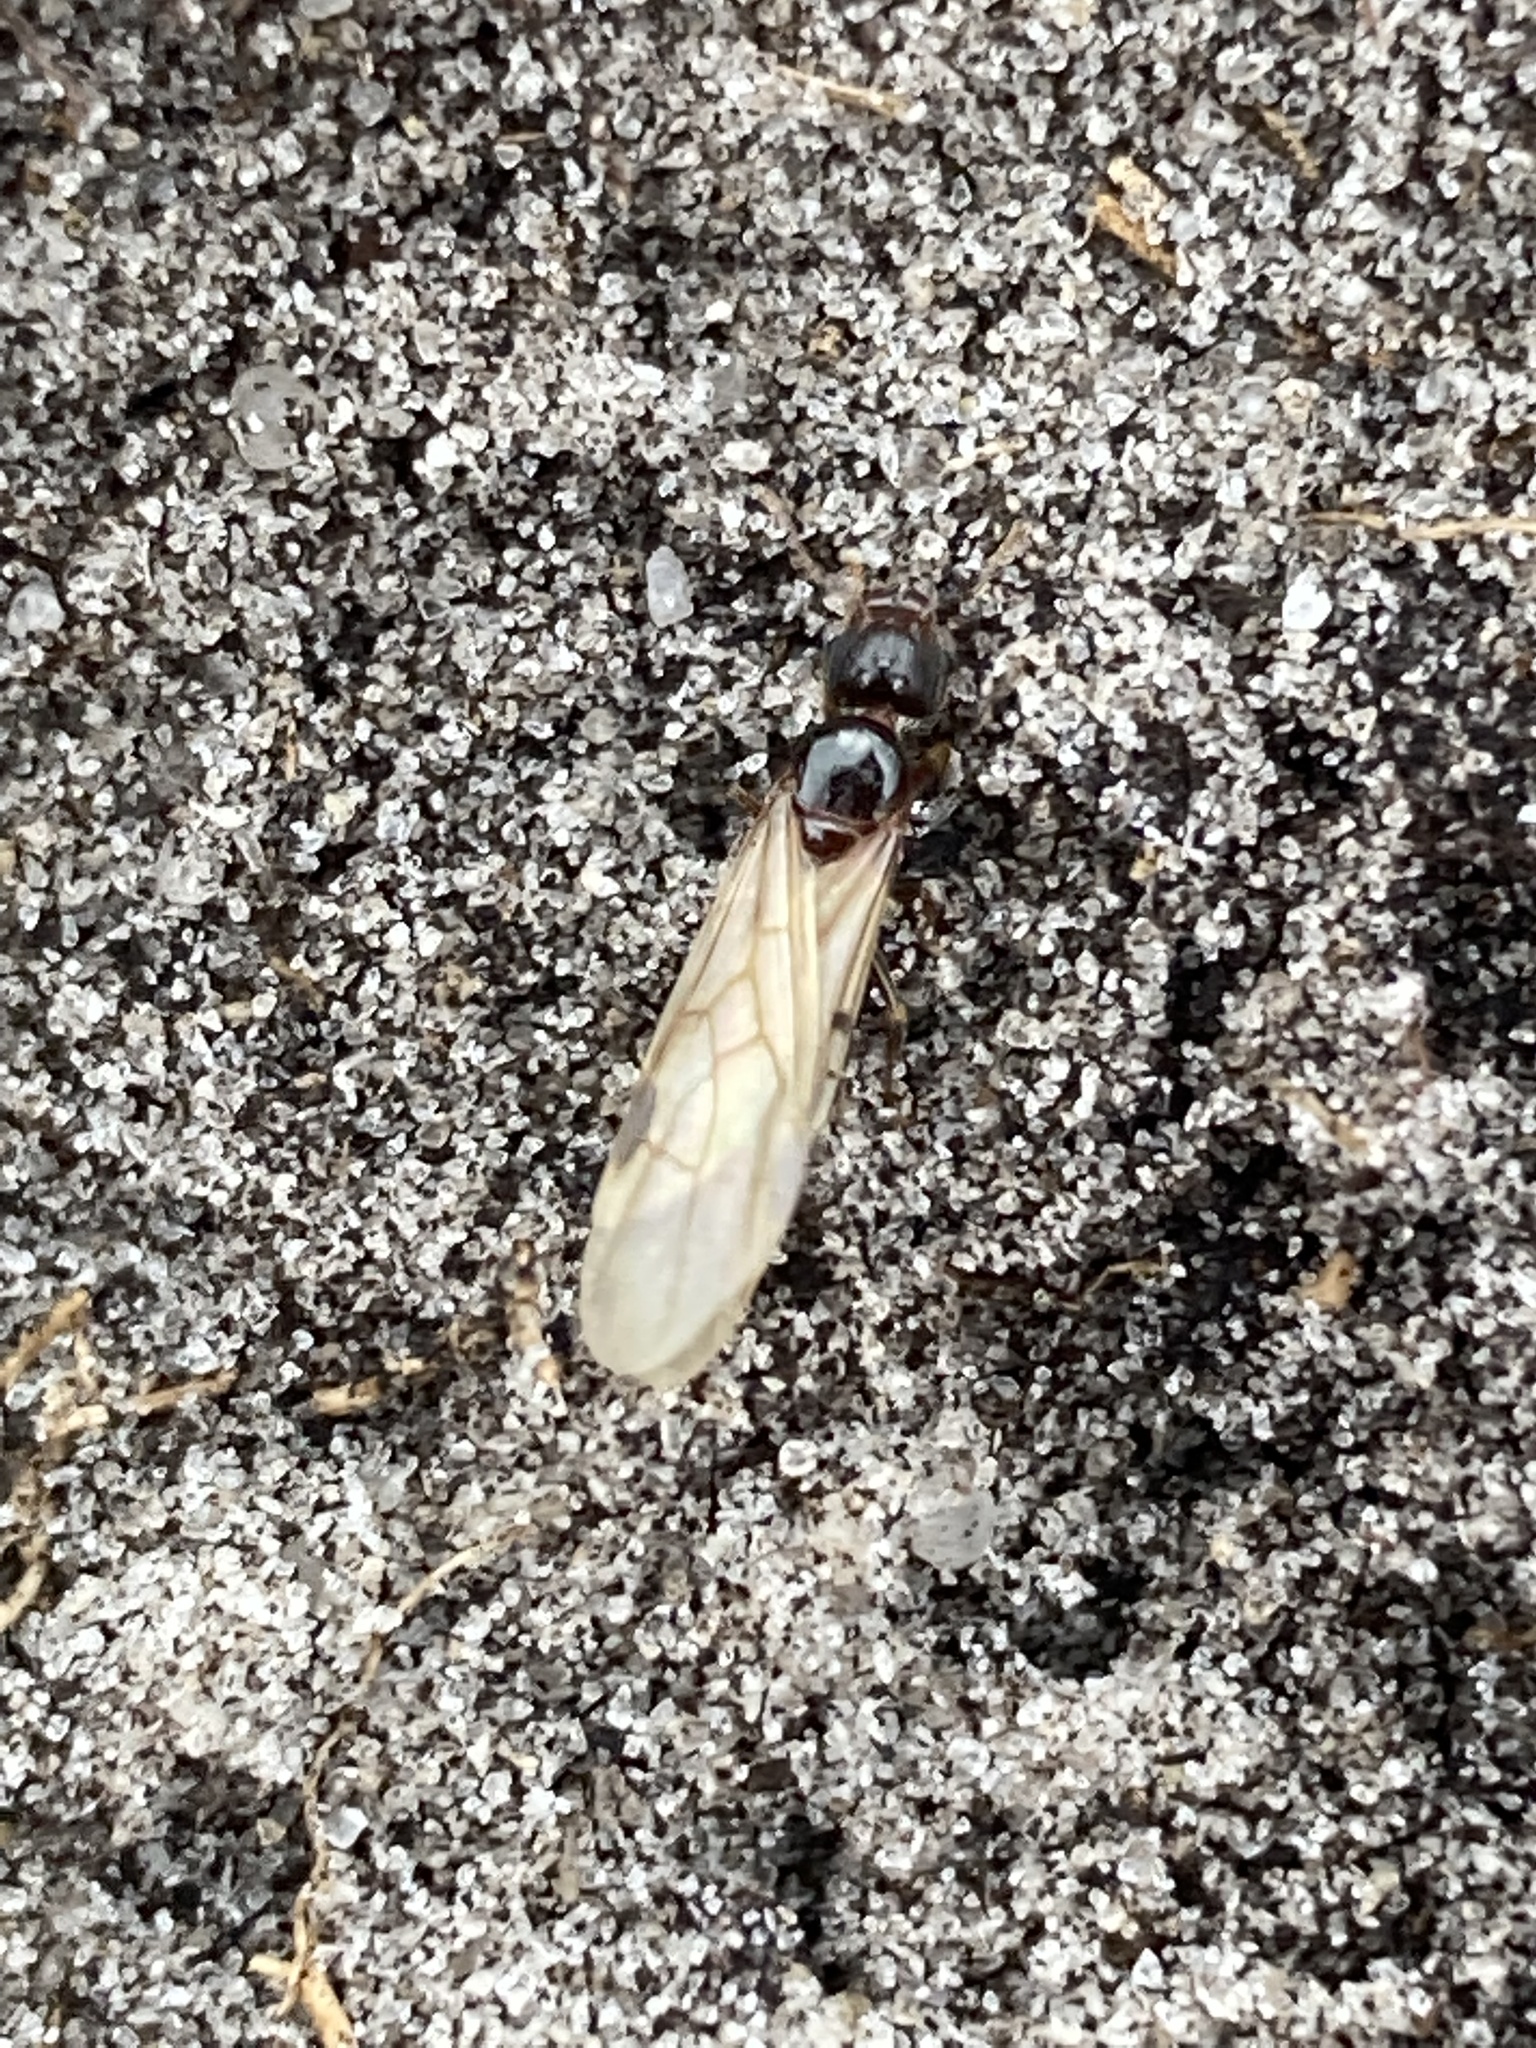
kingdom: Animalia
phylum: Arthropoda
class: Insecta
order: Hymenoptera
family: Formicidae
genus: Pheidole
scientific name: Pheidole megacephala
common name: Bigheaded ant
